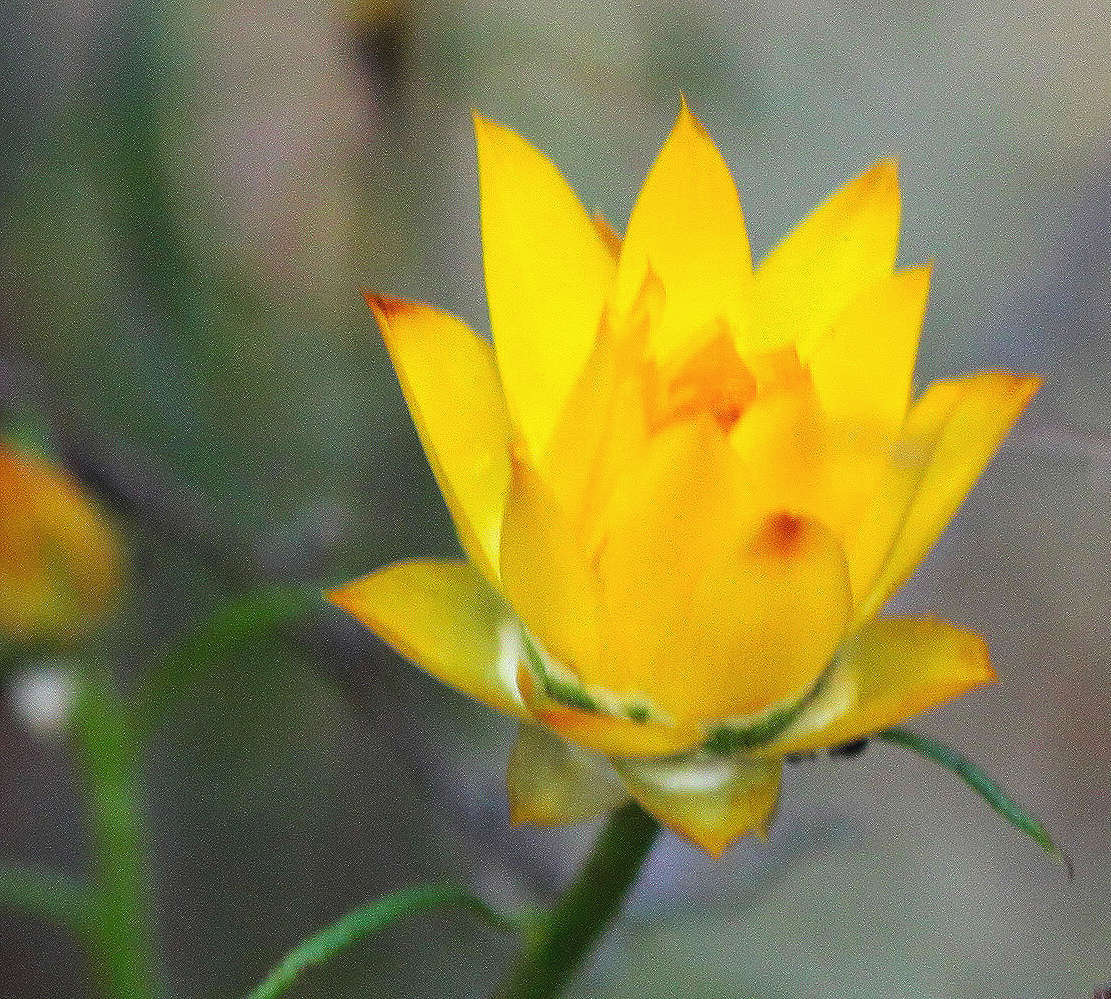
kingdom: Plantae
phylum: Tracheophyta
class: Magnoliopsida
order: Asterales
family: Asteraceae
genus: Xerochrysum
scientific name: Xerochrysum viscosum
